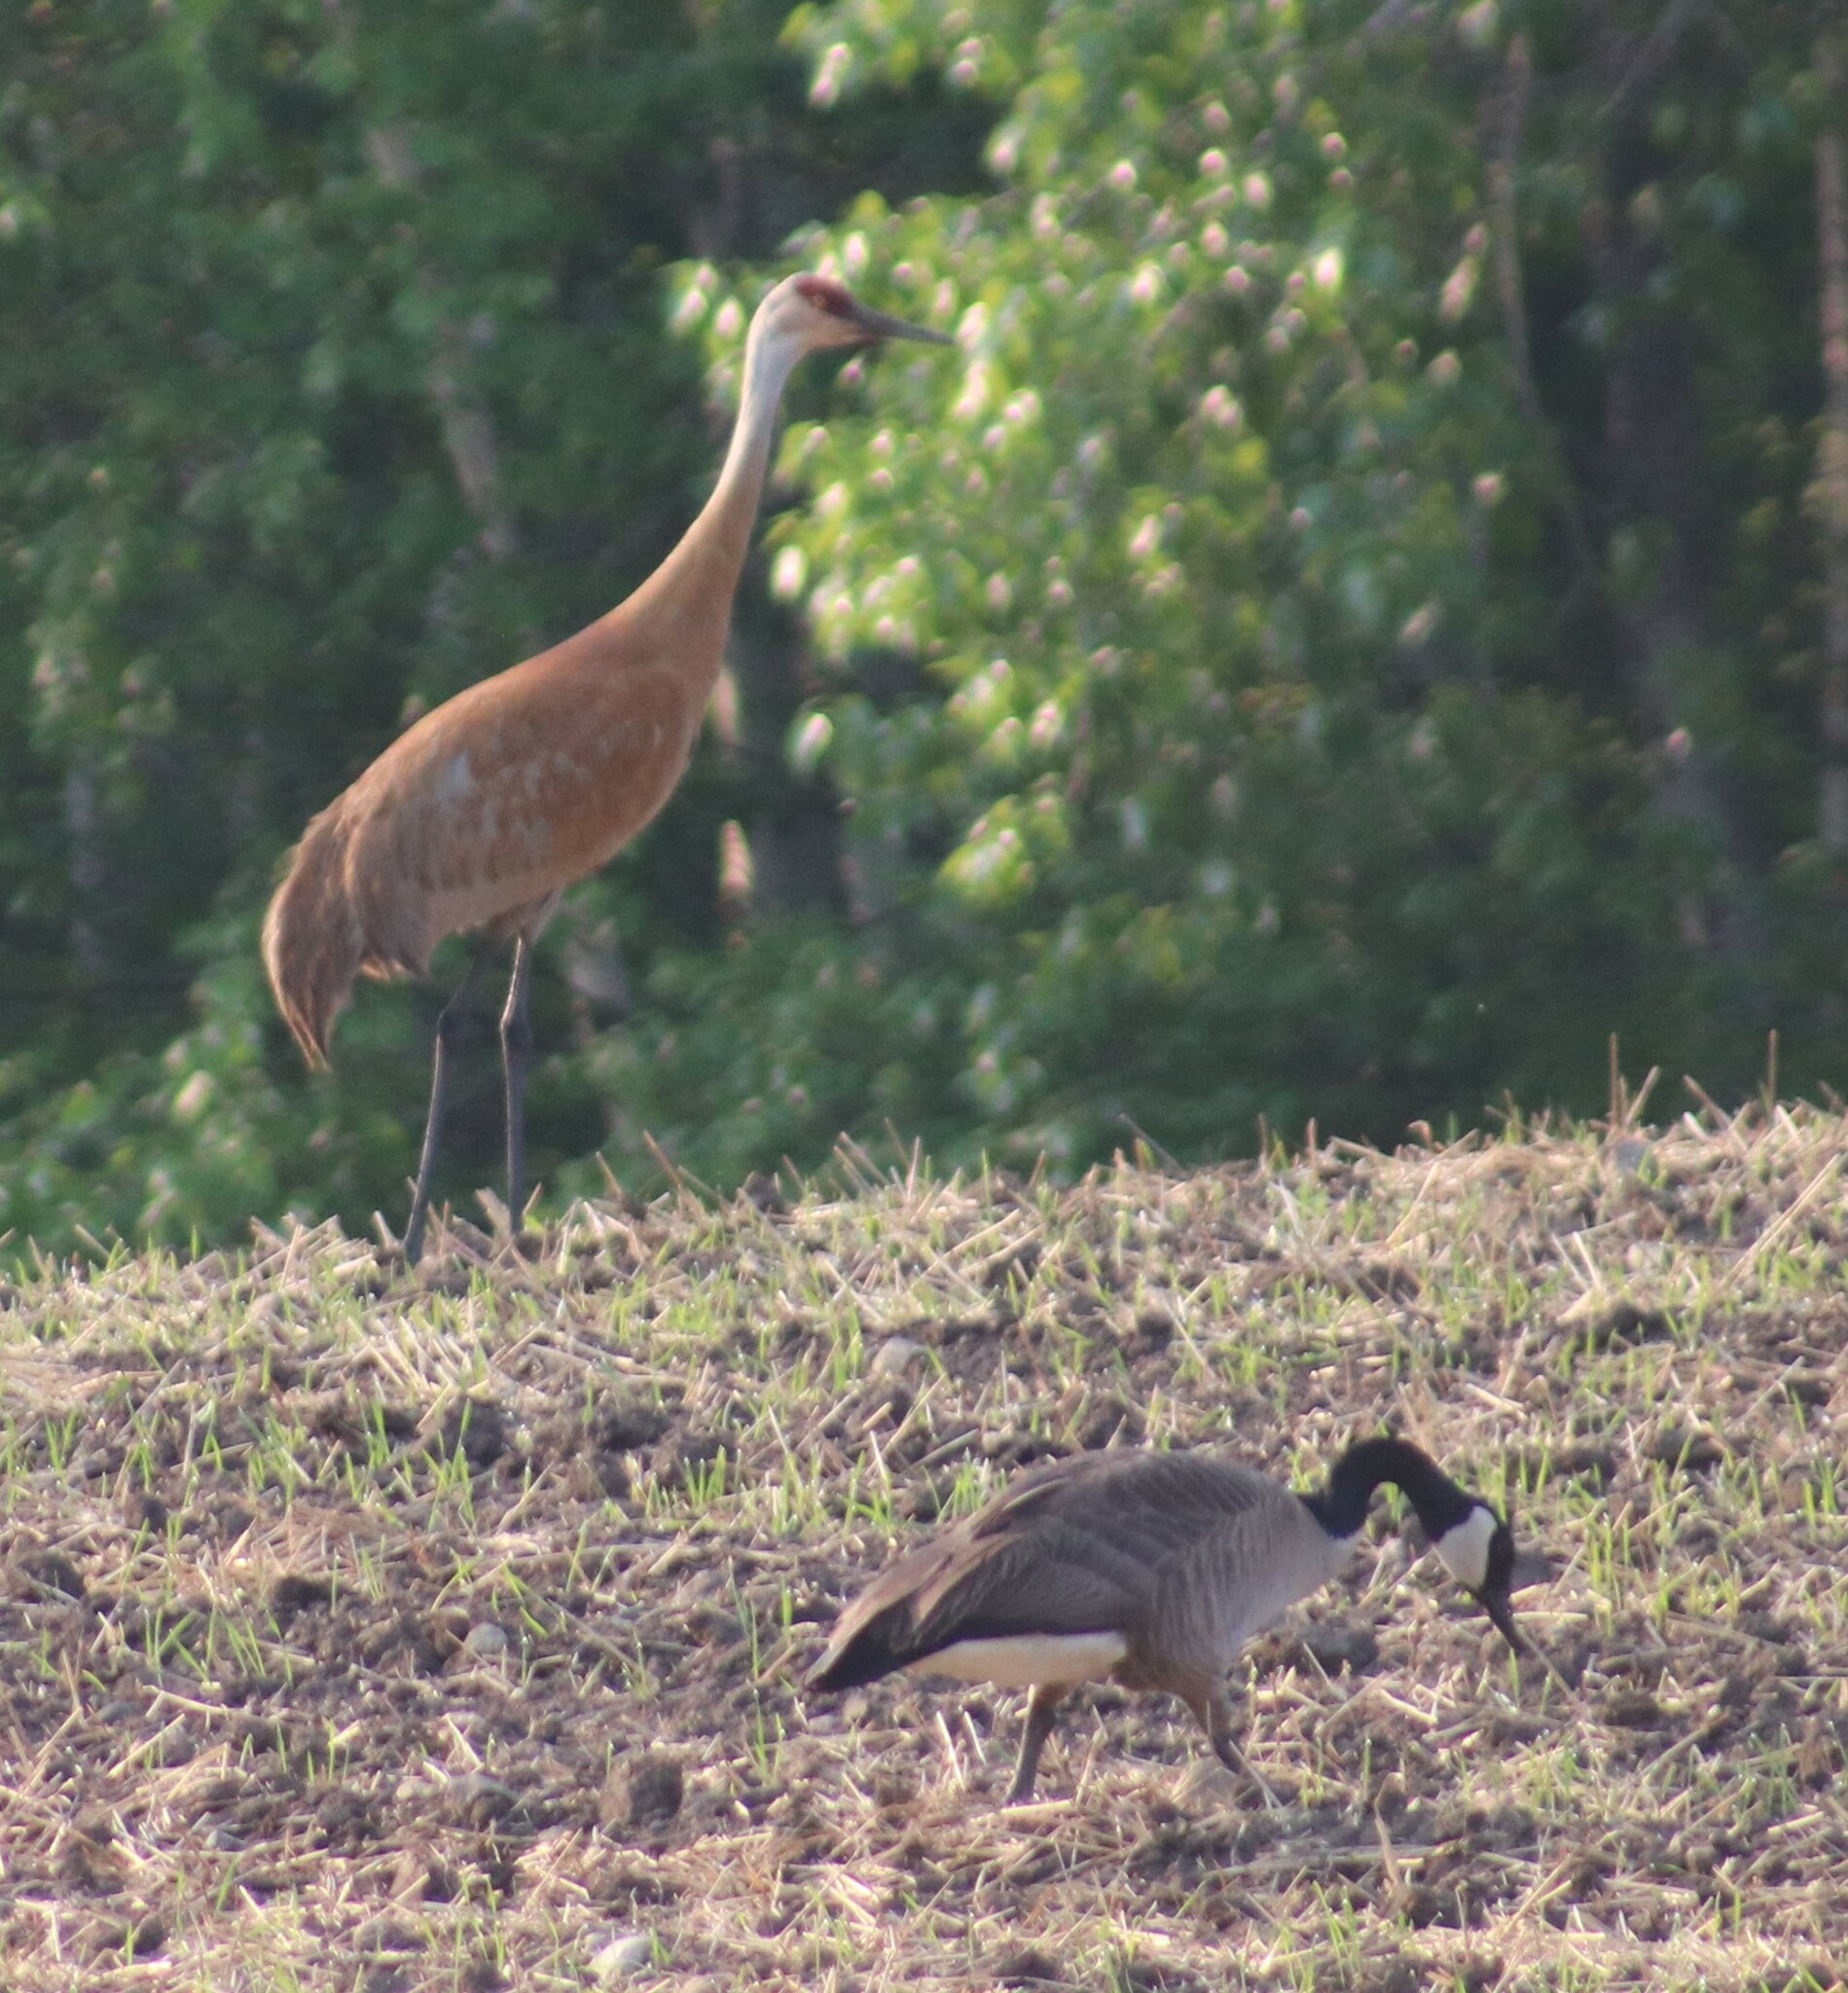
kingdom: Animalia
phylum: Chordata
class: Aves
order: Gruiformes
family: Gruidae
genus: Grus
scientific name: Grus canadensis
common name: Sandhill crane
